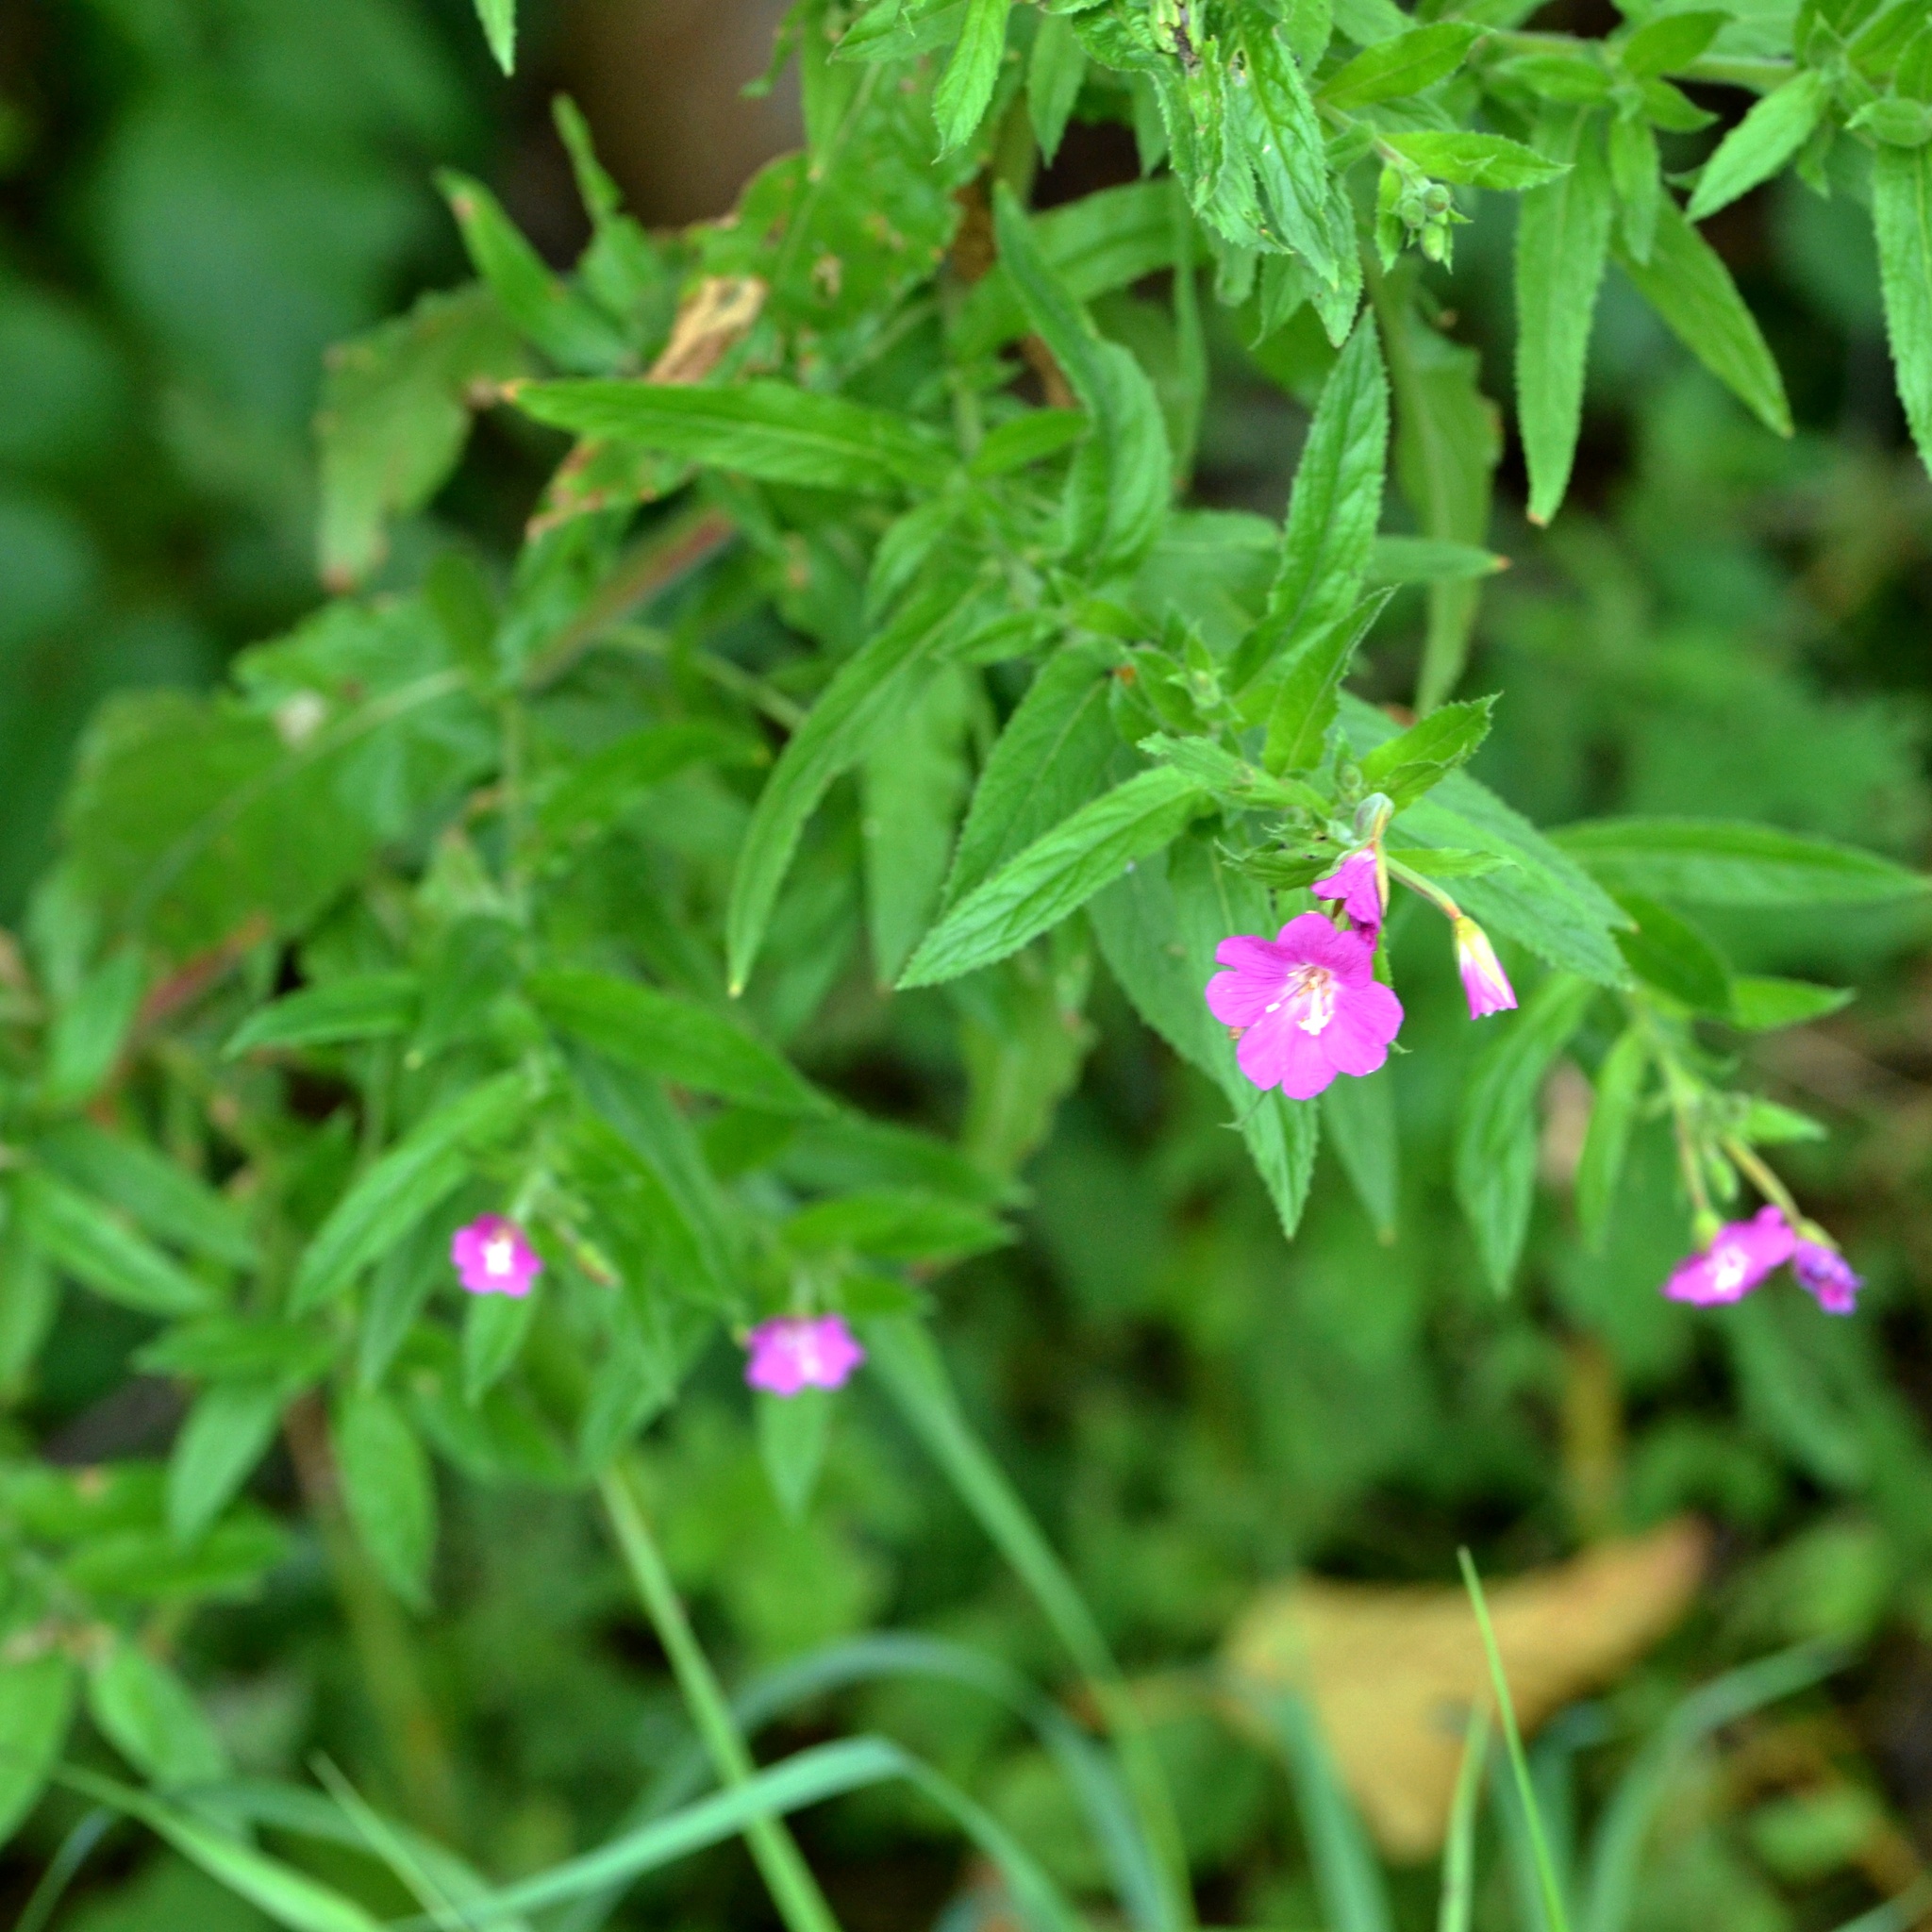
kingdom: Plantae
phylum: Tracheophyta
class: Magnoliopsida
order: Myrtales
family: Onagraceae
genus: Epilobium
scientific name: Epilobium hirsutum
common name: Great willowherb
